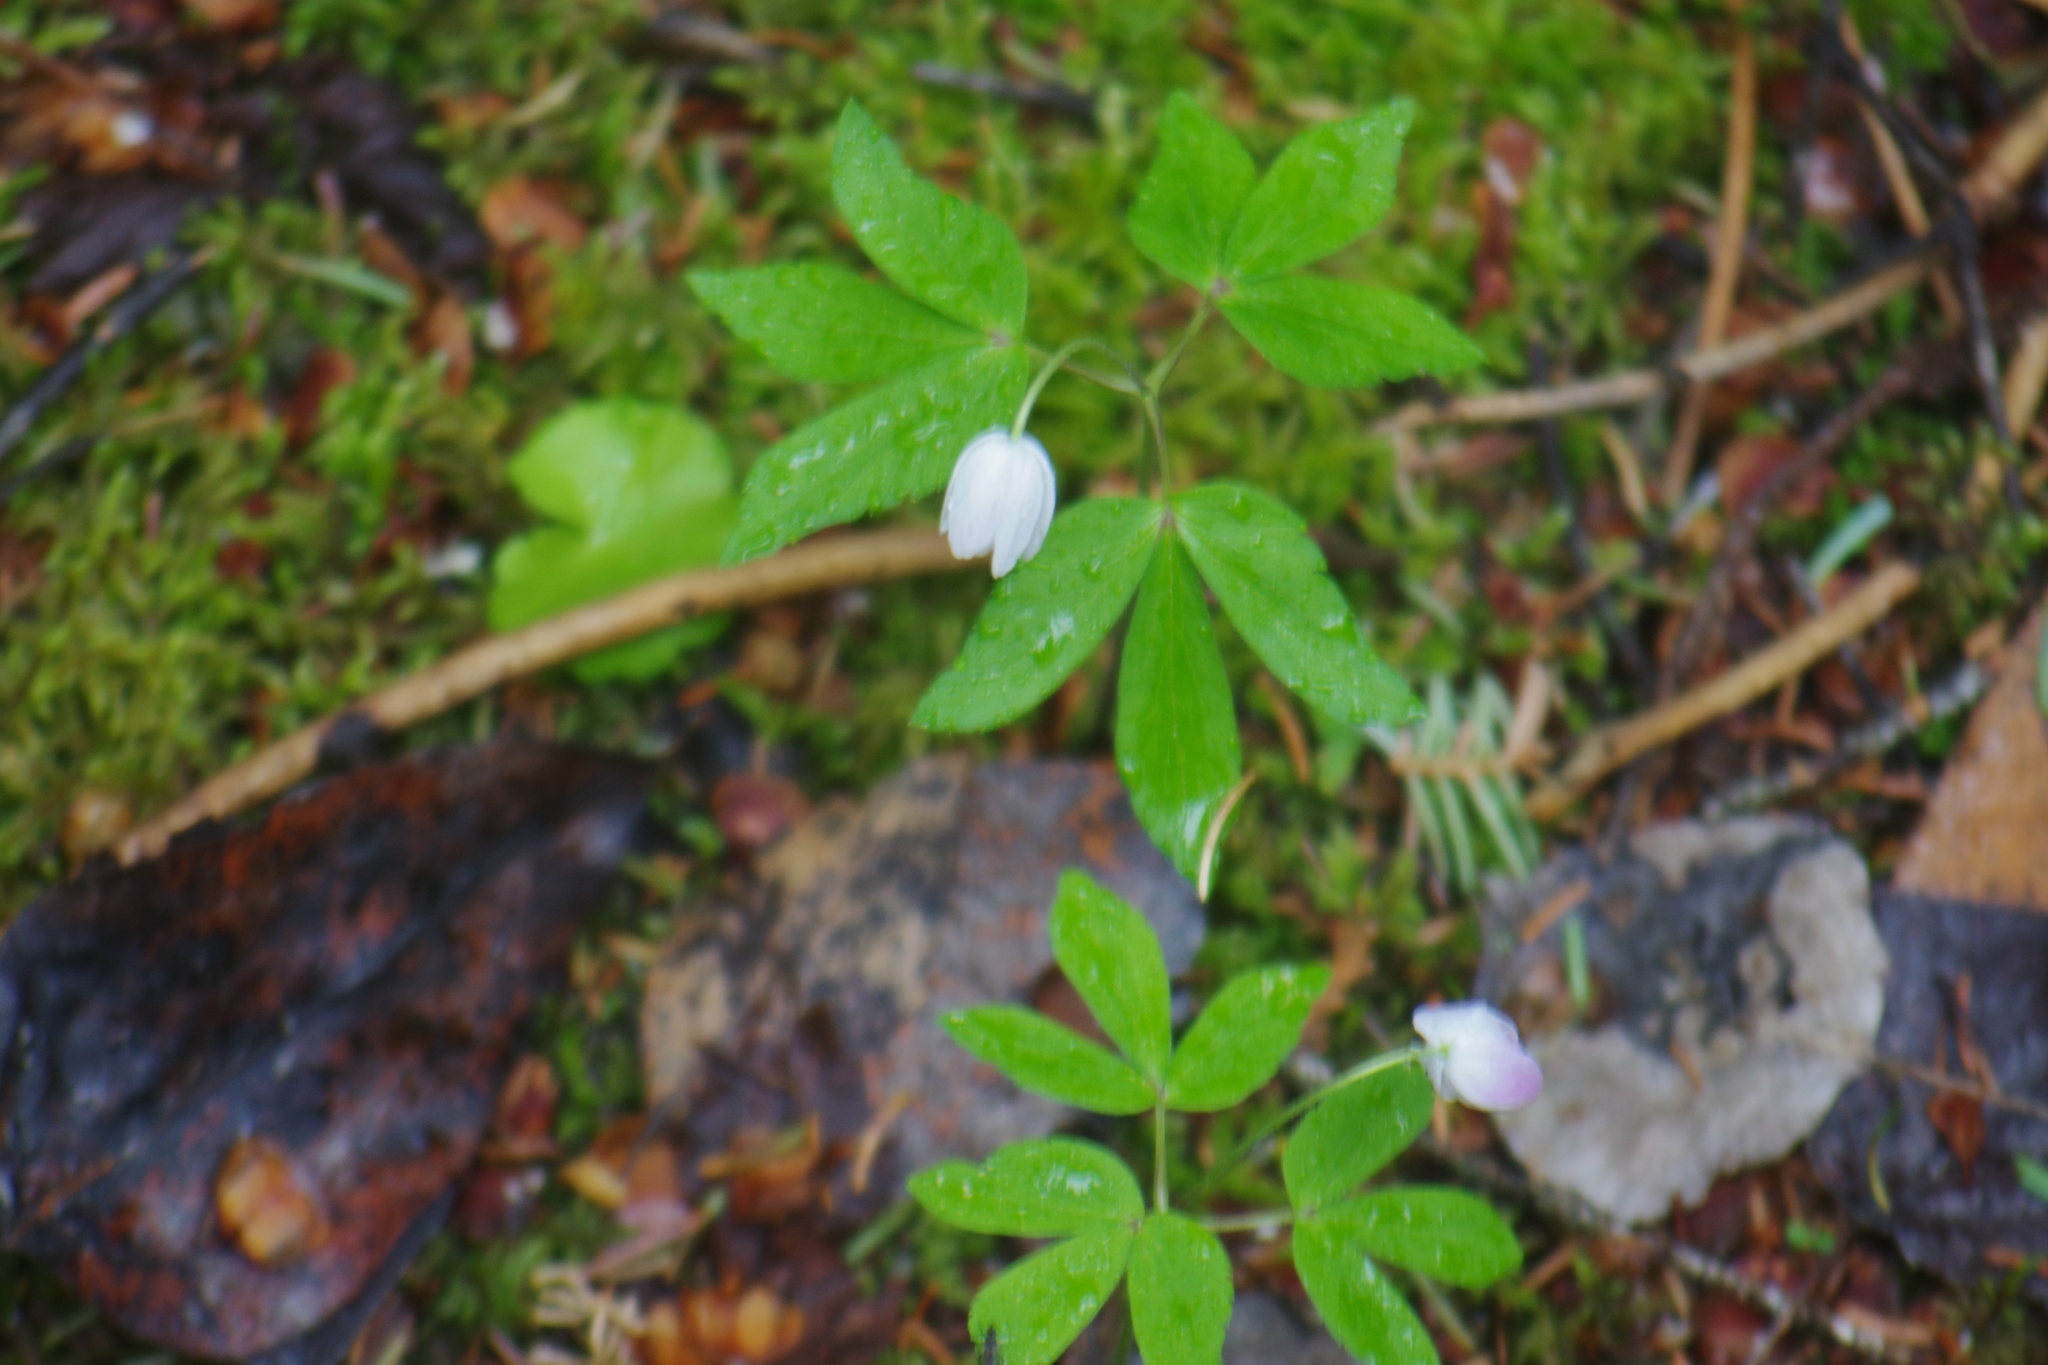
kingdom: Plantae
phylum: Tracheophyta
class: Magnoliopsida
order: Ranunculales
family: Ranunculaceae
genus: Anemone
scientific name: Anemone quinquefolia
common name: Wood anemone
